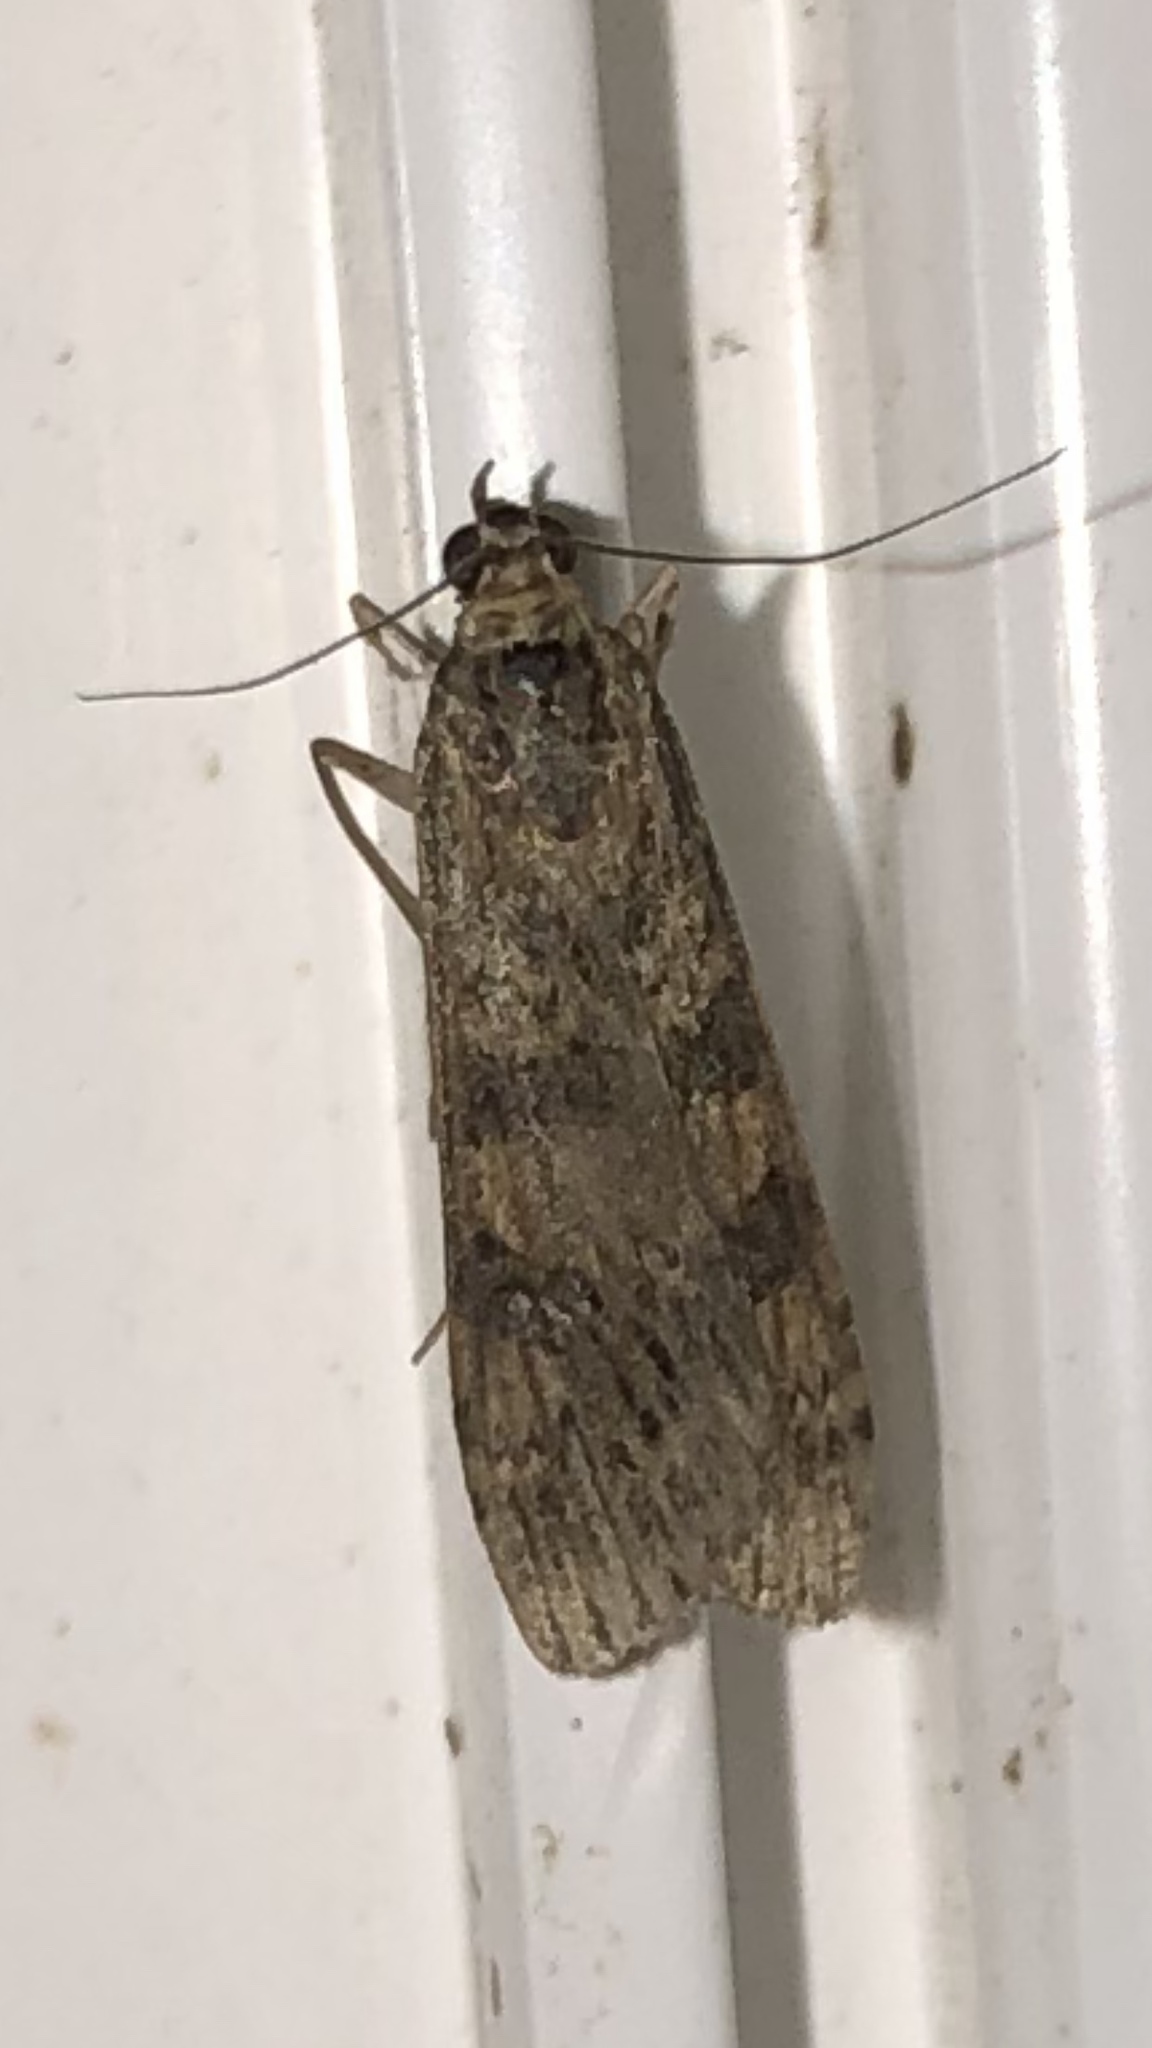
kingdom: Animalia
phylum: Arthropoda
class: Insecta
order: Lepidoptera
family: Crambidae
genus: Nomophila
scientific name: Nomophila nearctica
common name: American rush veneer
